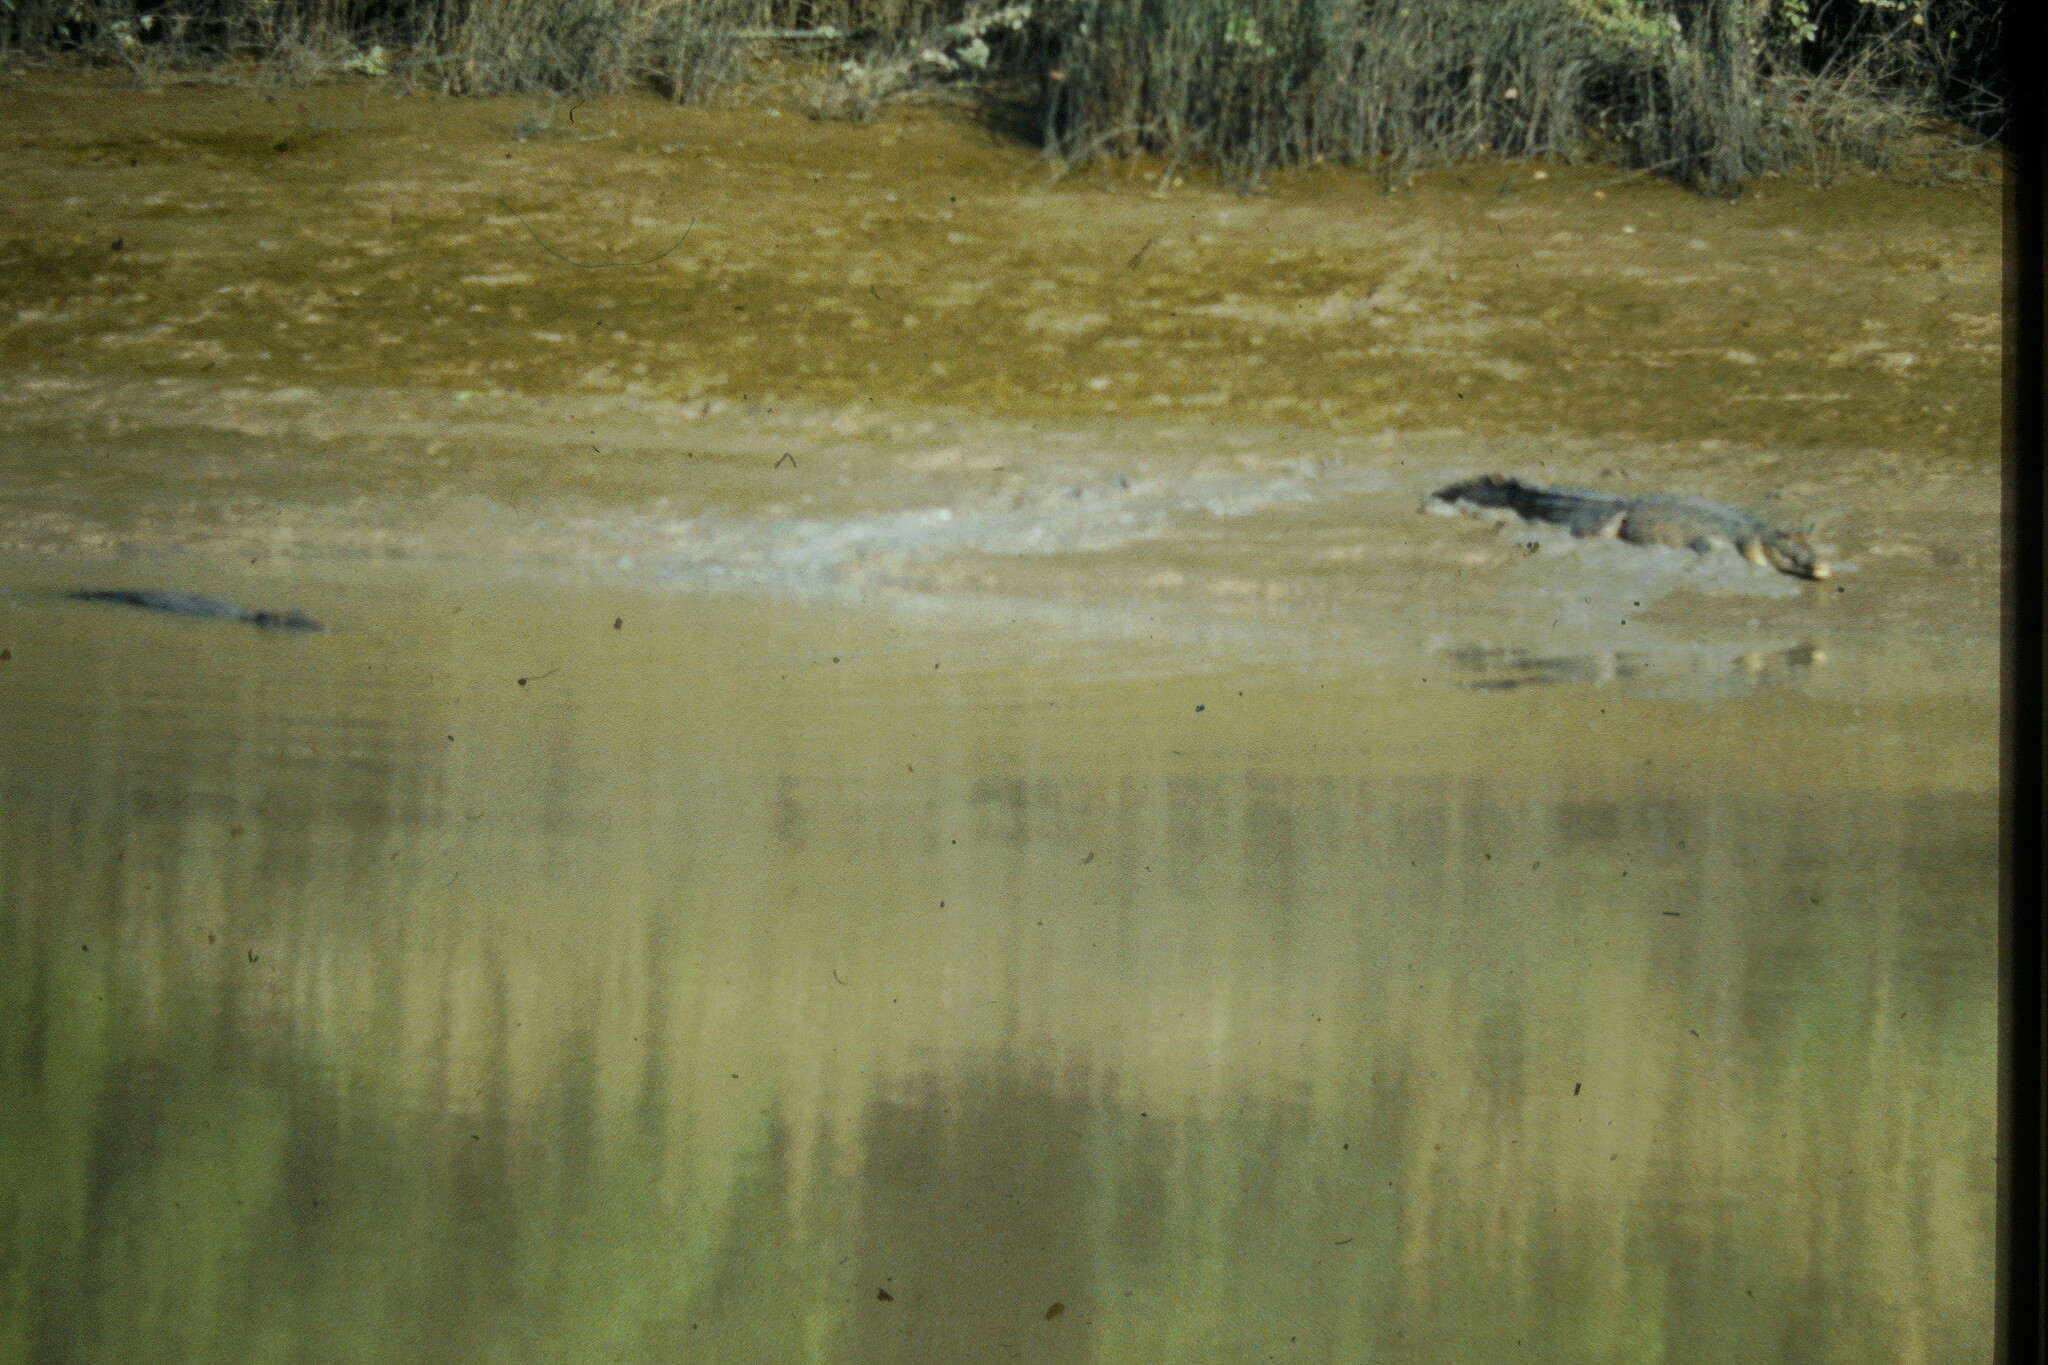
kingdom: Animalia
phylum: Chordata
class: Crocodylia
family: Crocodylidae
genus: Crocodylus
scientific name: Crocodylus porosus
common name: Saltwater crocodile
